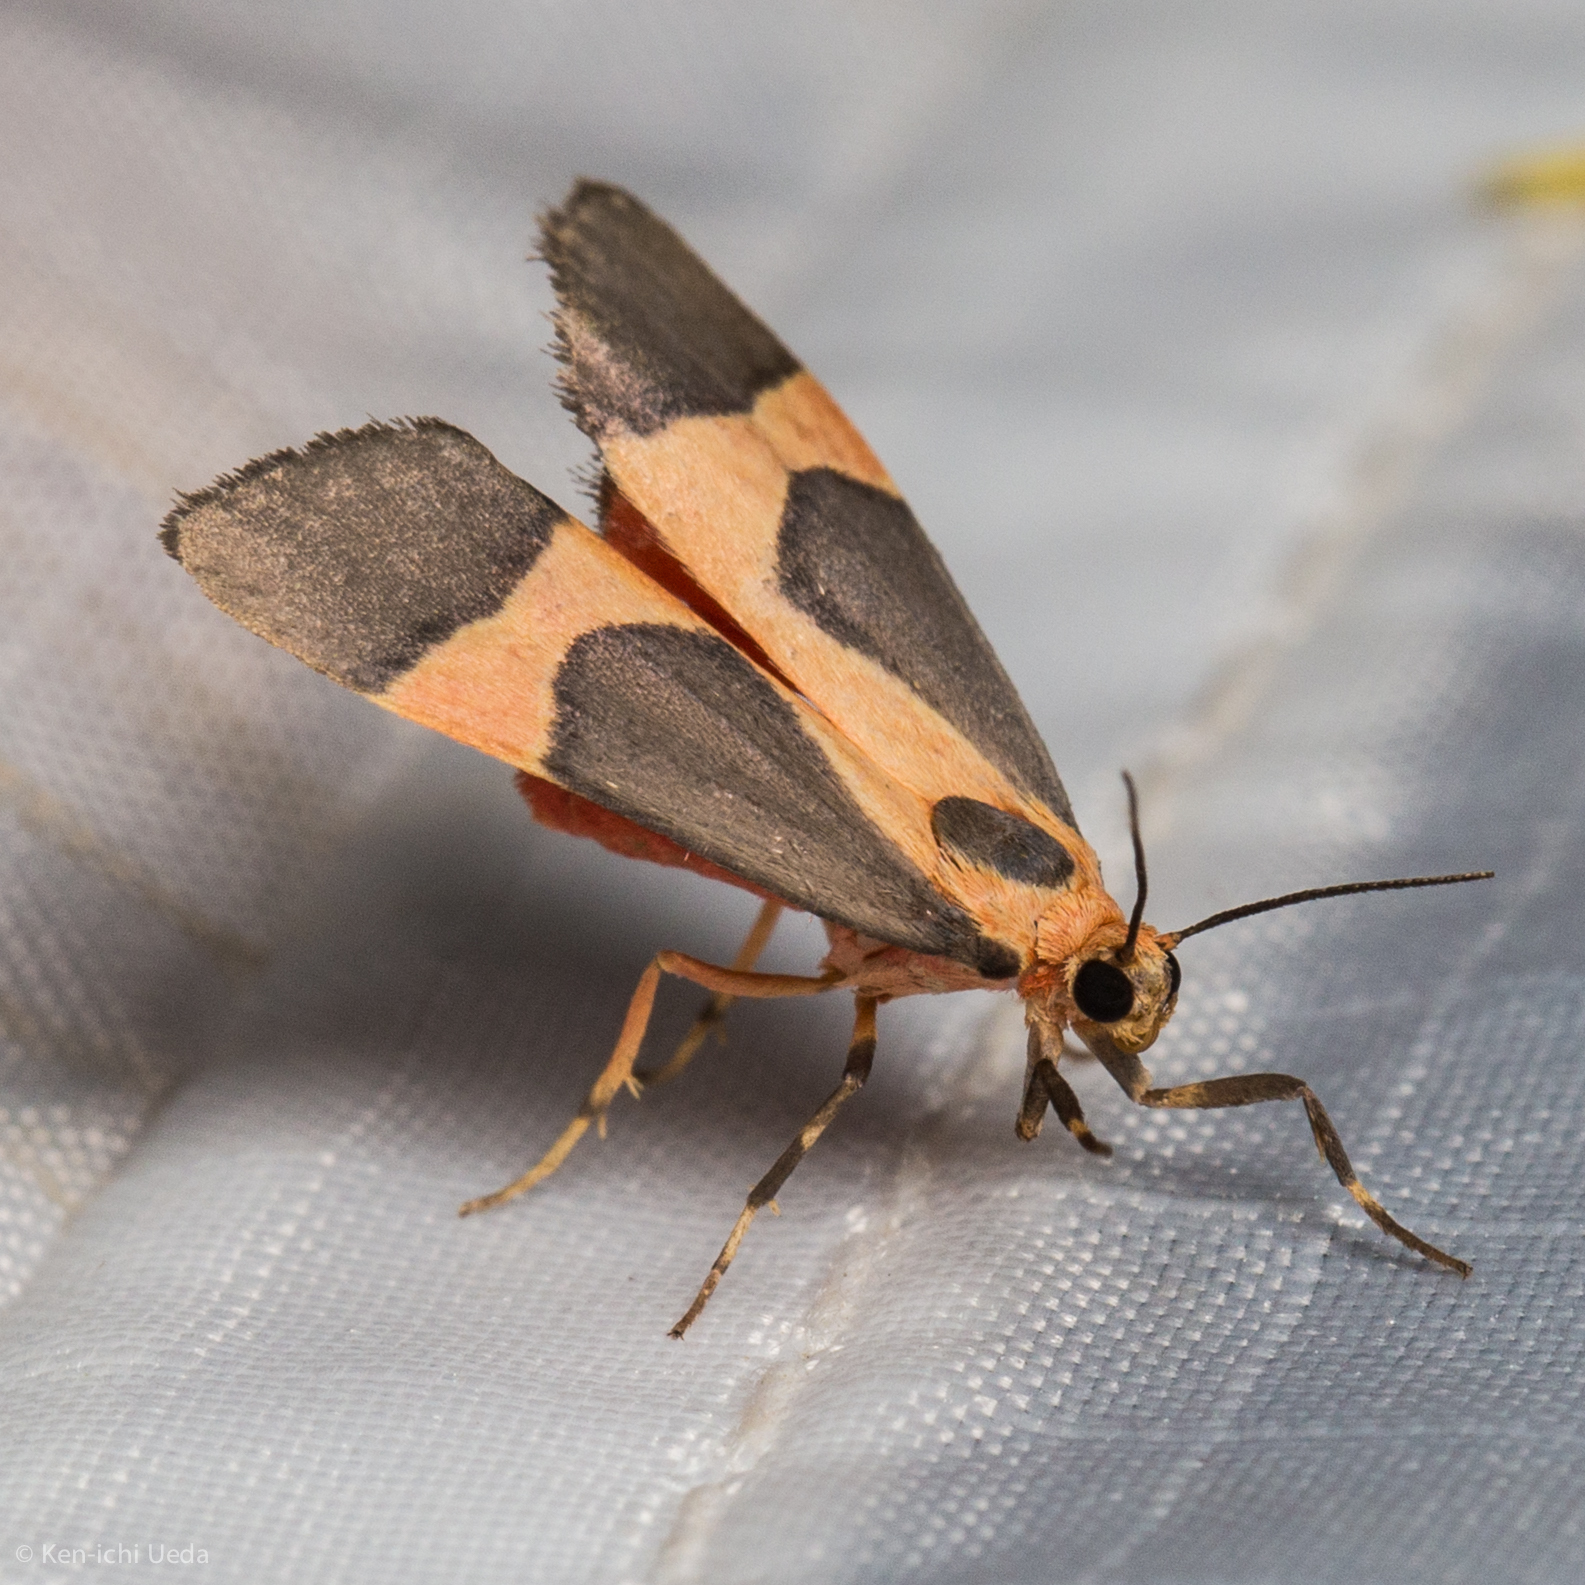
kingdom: Animalia
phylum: Arthropoda
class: Insecta
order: Lepidoptera
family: Erebidae
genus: Cisthene
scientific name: Cisthene martini
